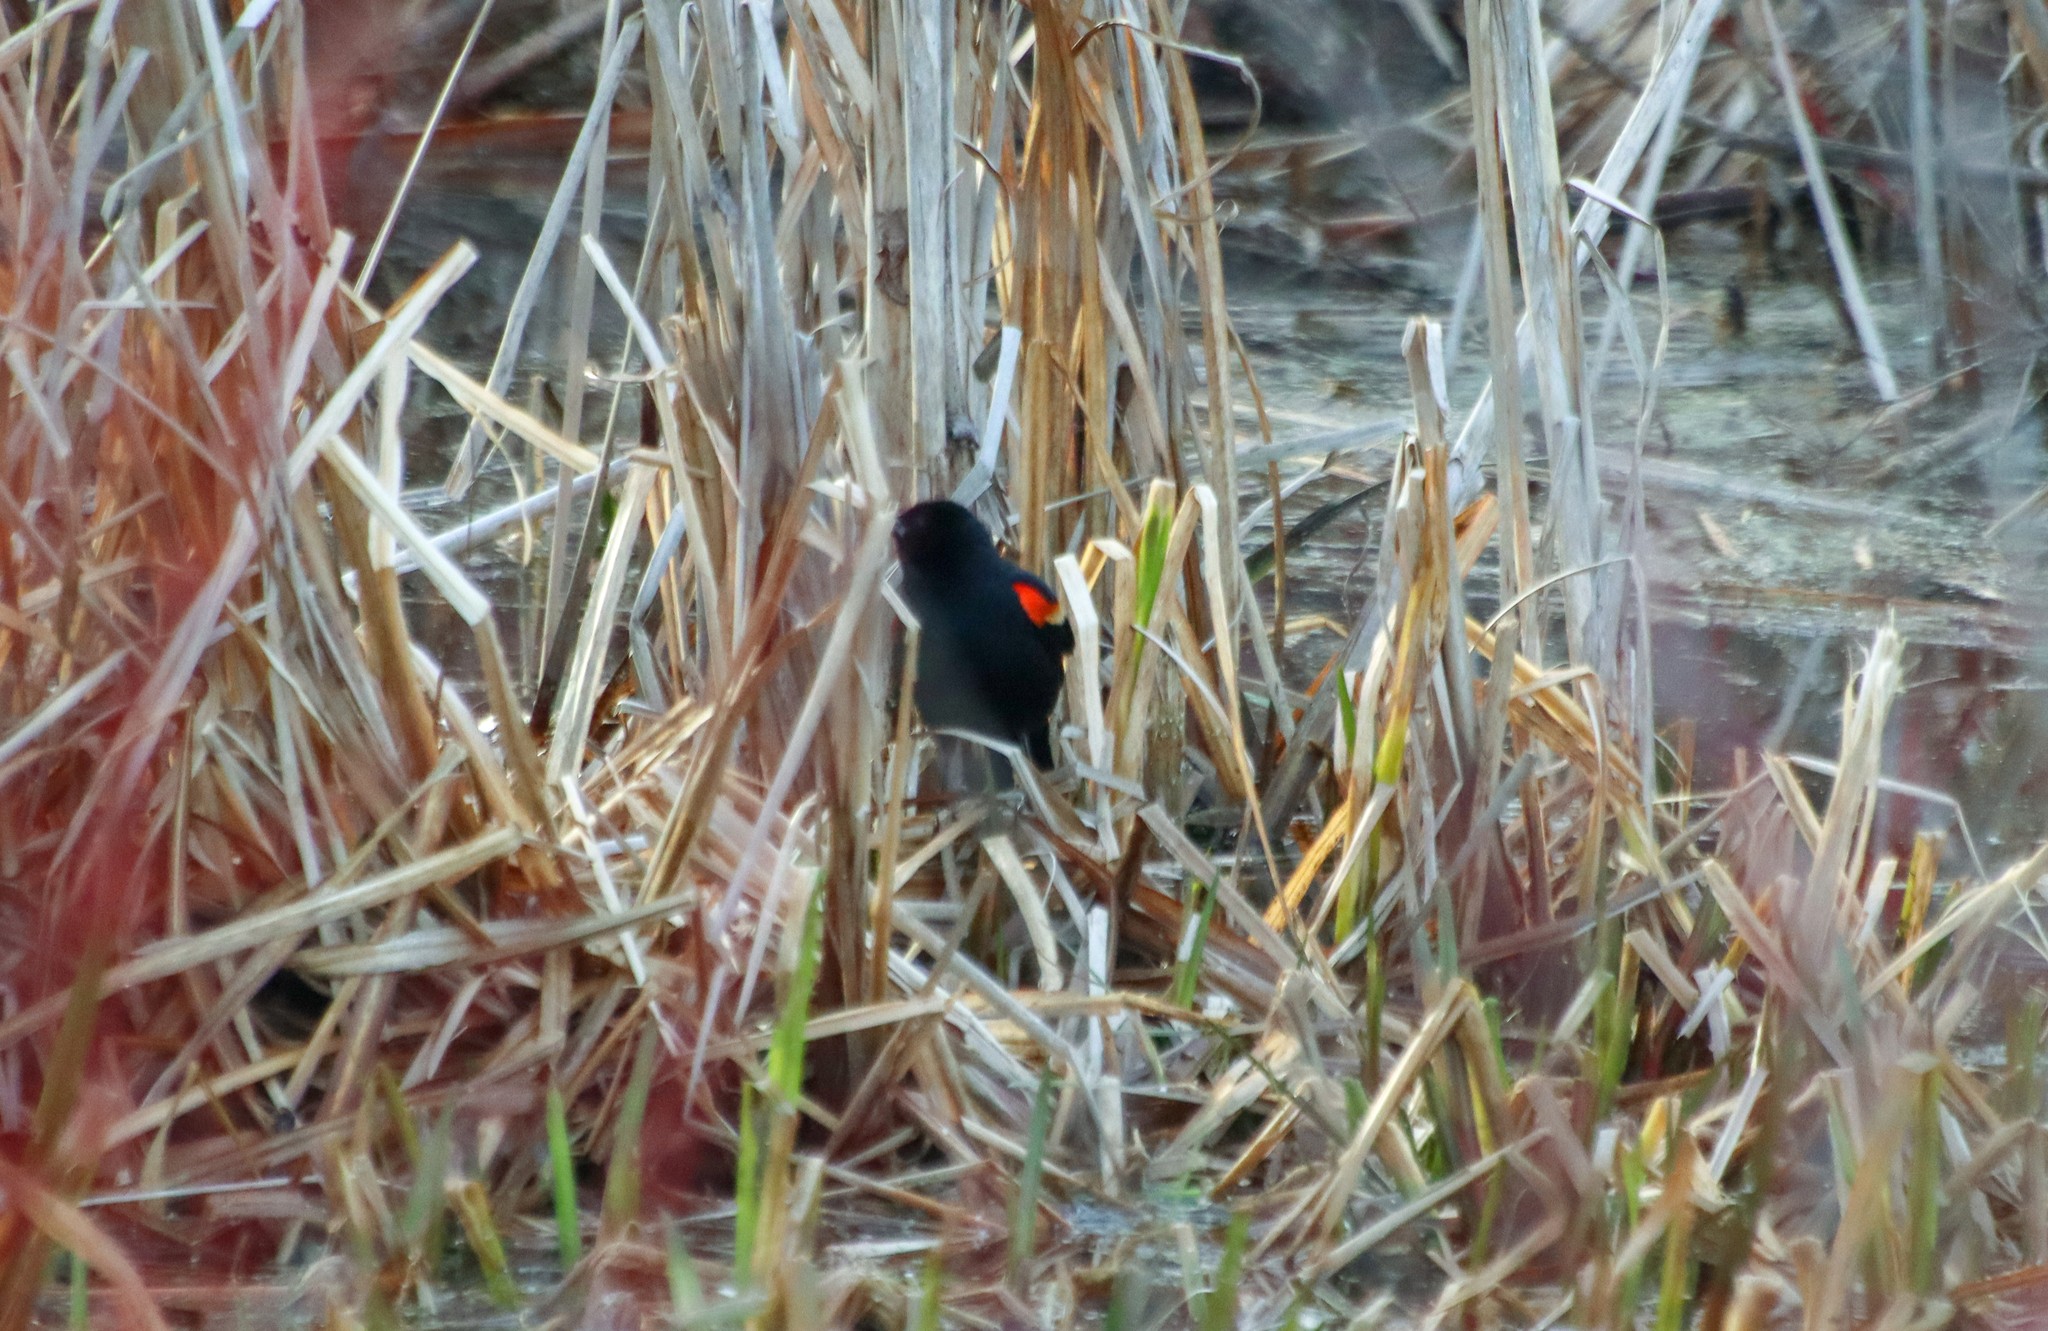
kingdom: Animalia
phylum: Chordata
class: Aves
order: Passeriformes
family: Icteridae
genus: Agelaius
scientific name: Agelaius phoeniceus
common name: Red-winged blackbird
